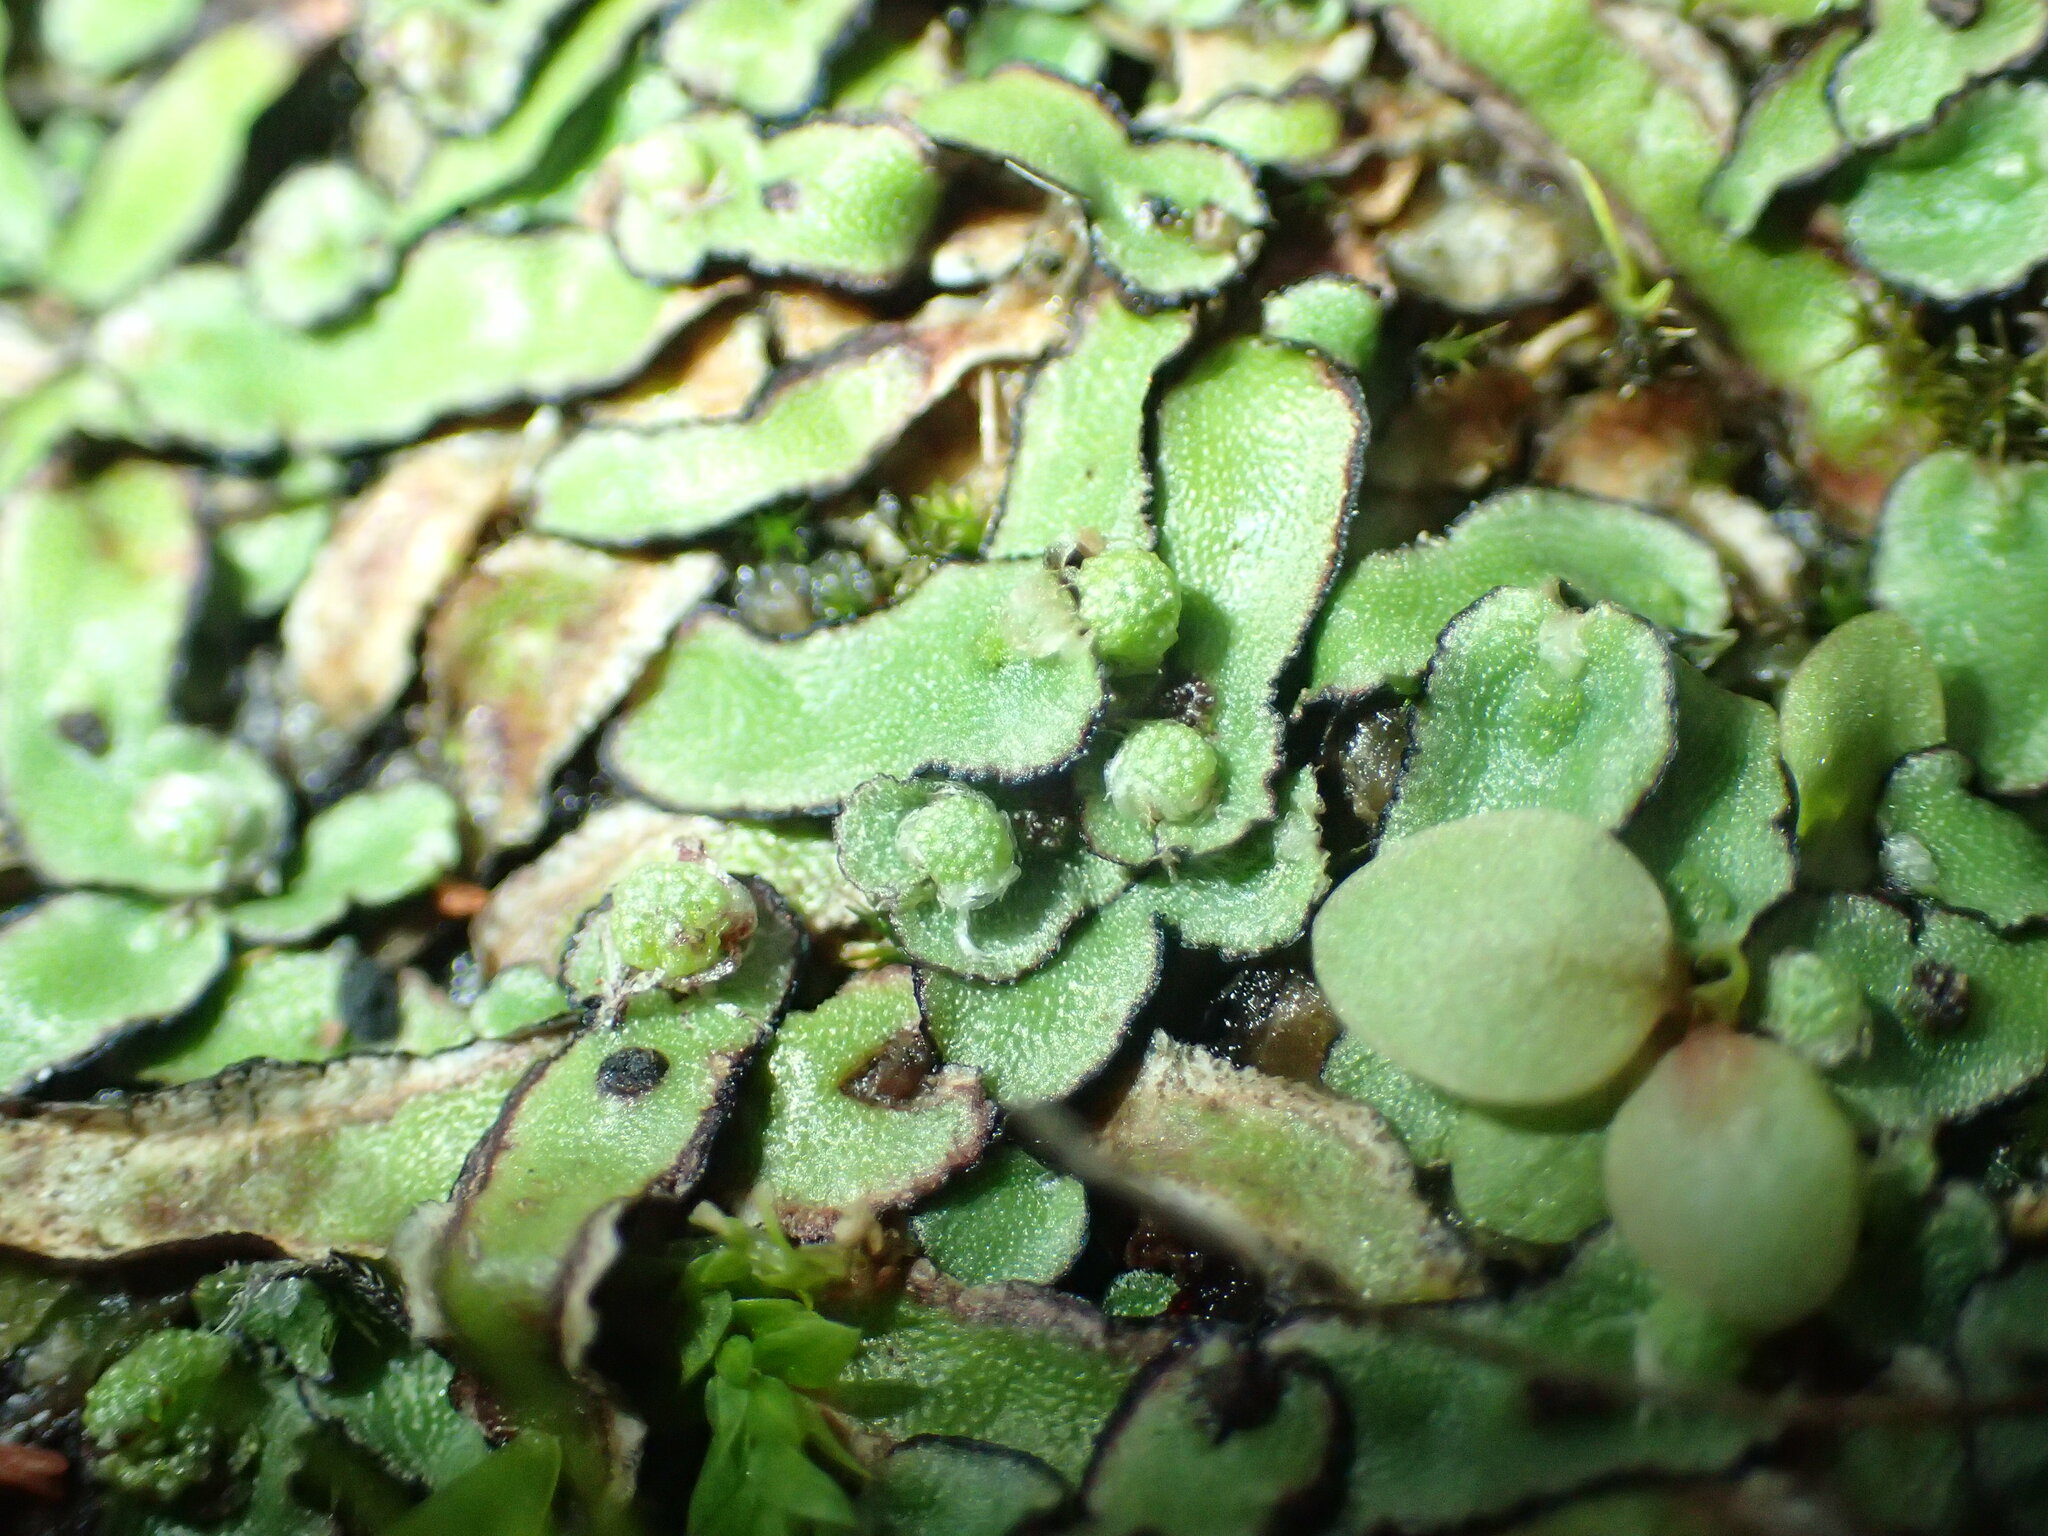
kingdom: Plantae
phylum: Marchantiophyta
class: Marchantiopsida
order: Marchantiales
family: Aytoniaceae
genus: Asterella
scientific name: Asterella drummondii
